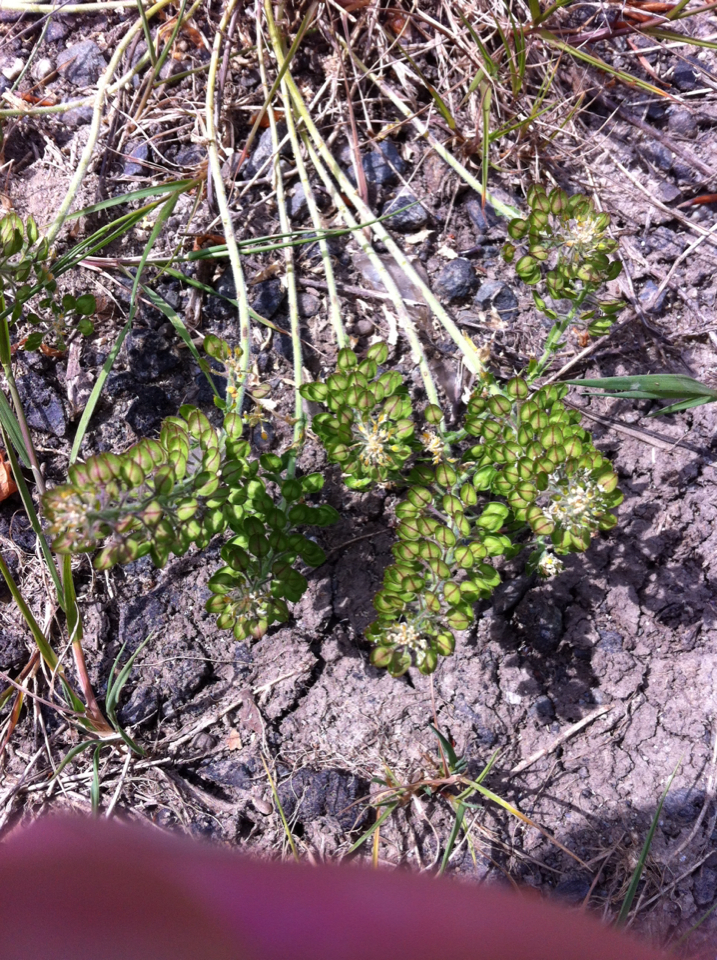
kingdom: Plantae
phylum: Tracheophyta
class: Magnoliopsida
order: Brassicales
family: Brassicaceae
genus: Teesdalia
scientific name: Teesdalia nudicaulis
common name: Shepherd's cress
